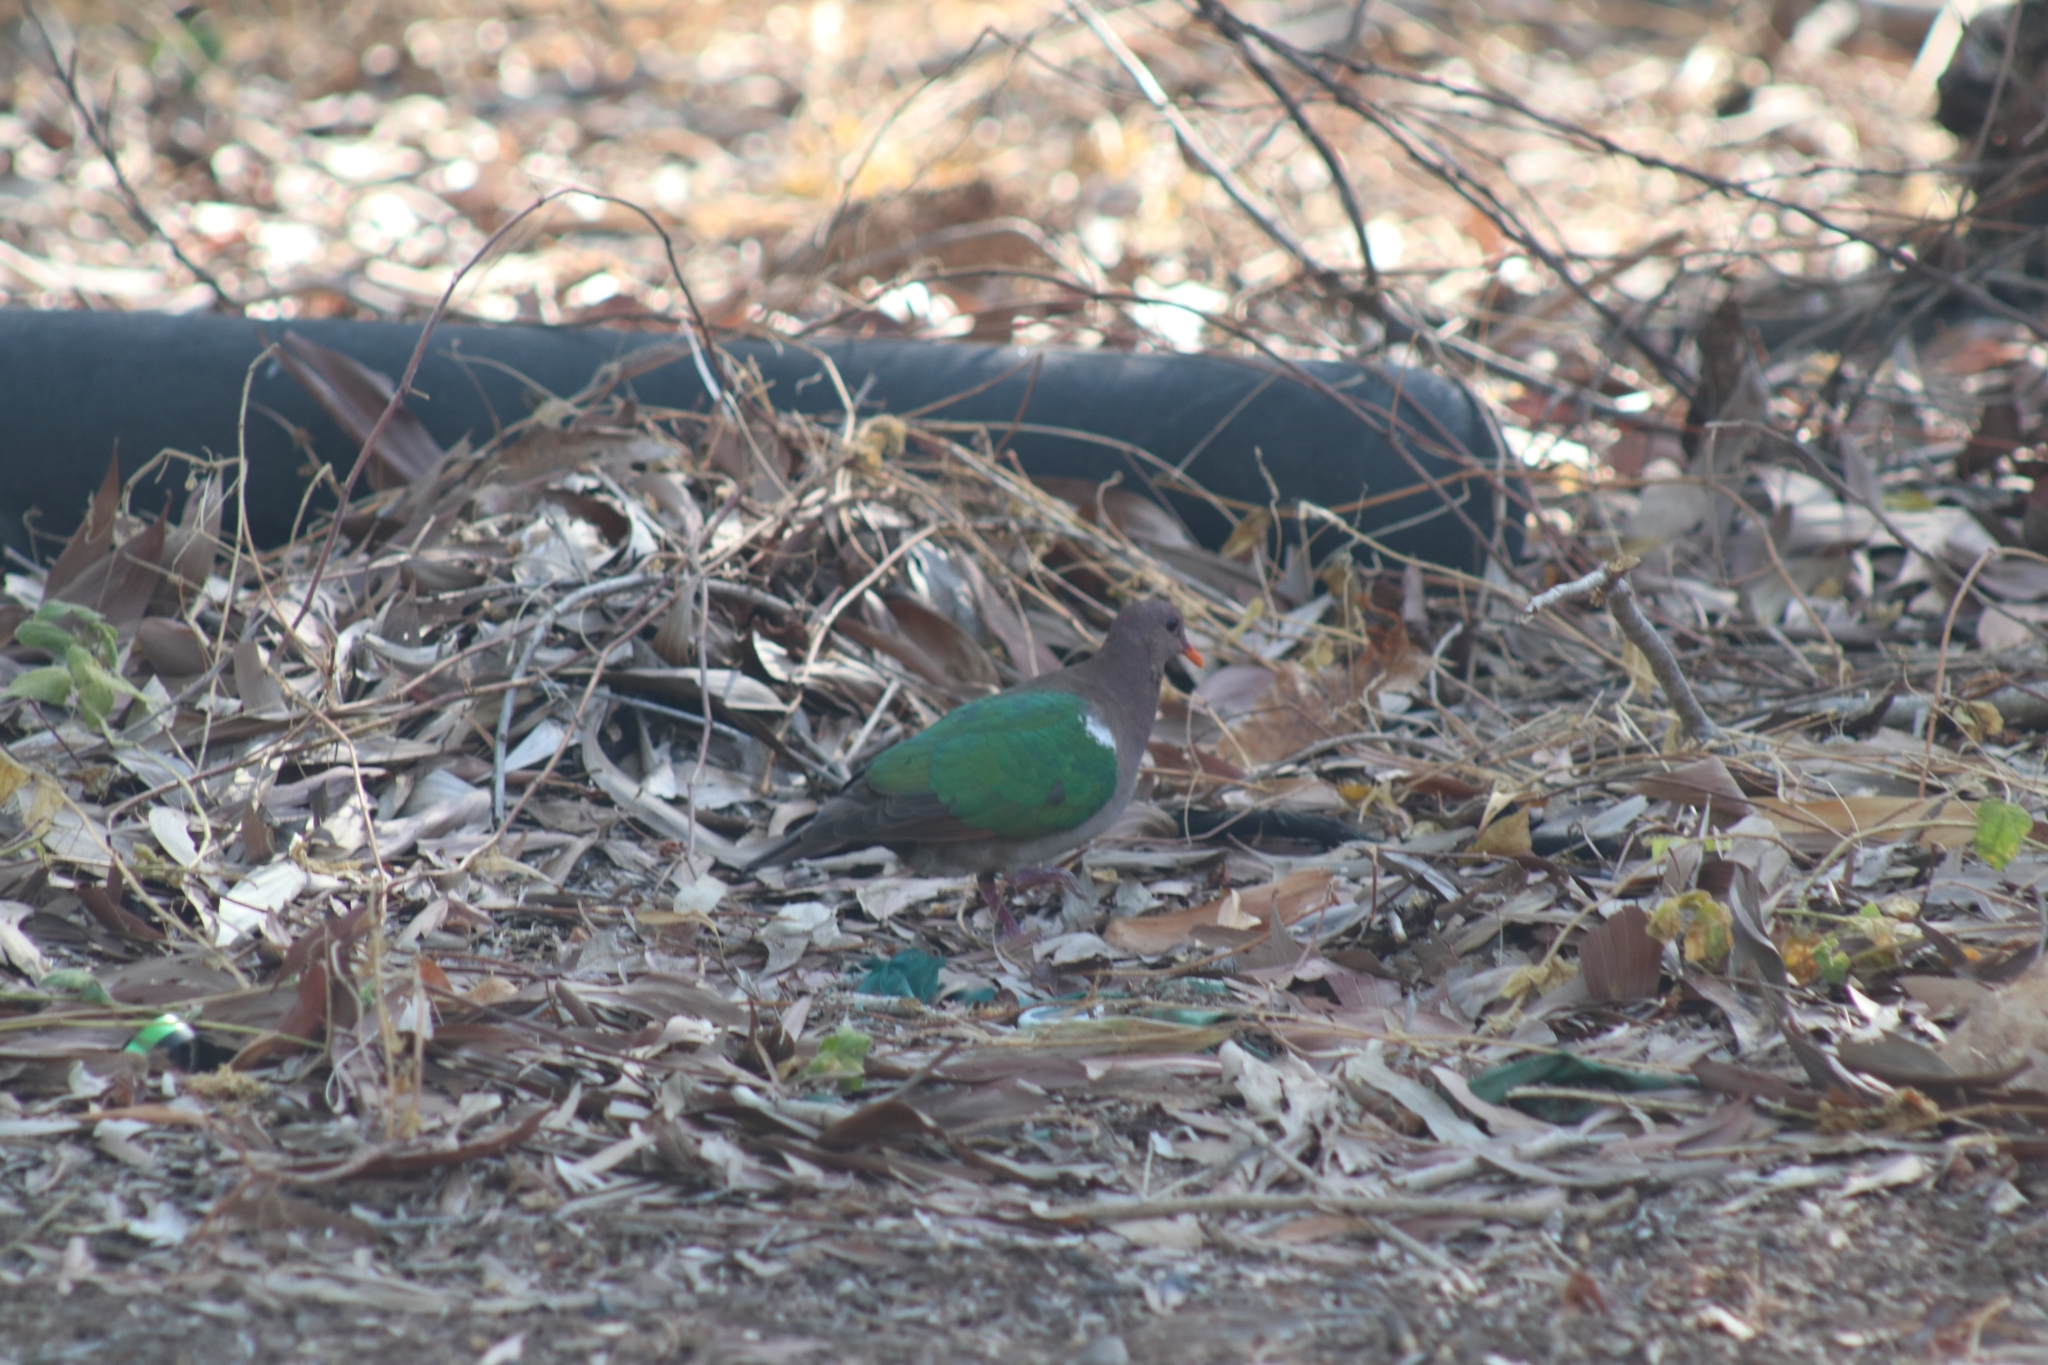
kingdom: Animalia
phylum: Chordata
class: Aves
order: Columbiformes
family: Columbidae
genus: Chalcophaps
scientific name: Chalcophaps longirostris
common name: Pacific emerald dove
